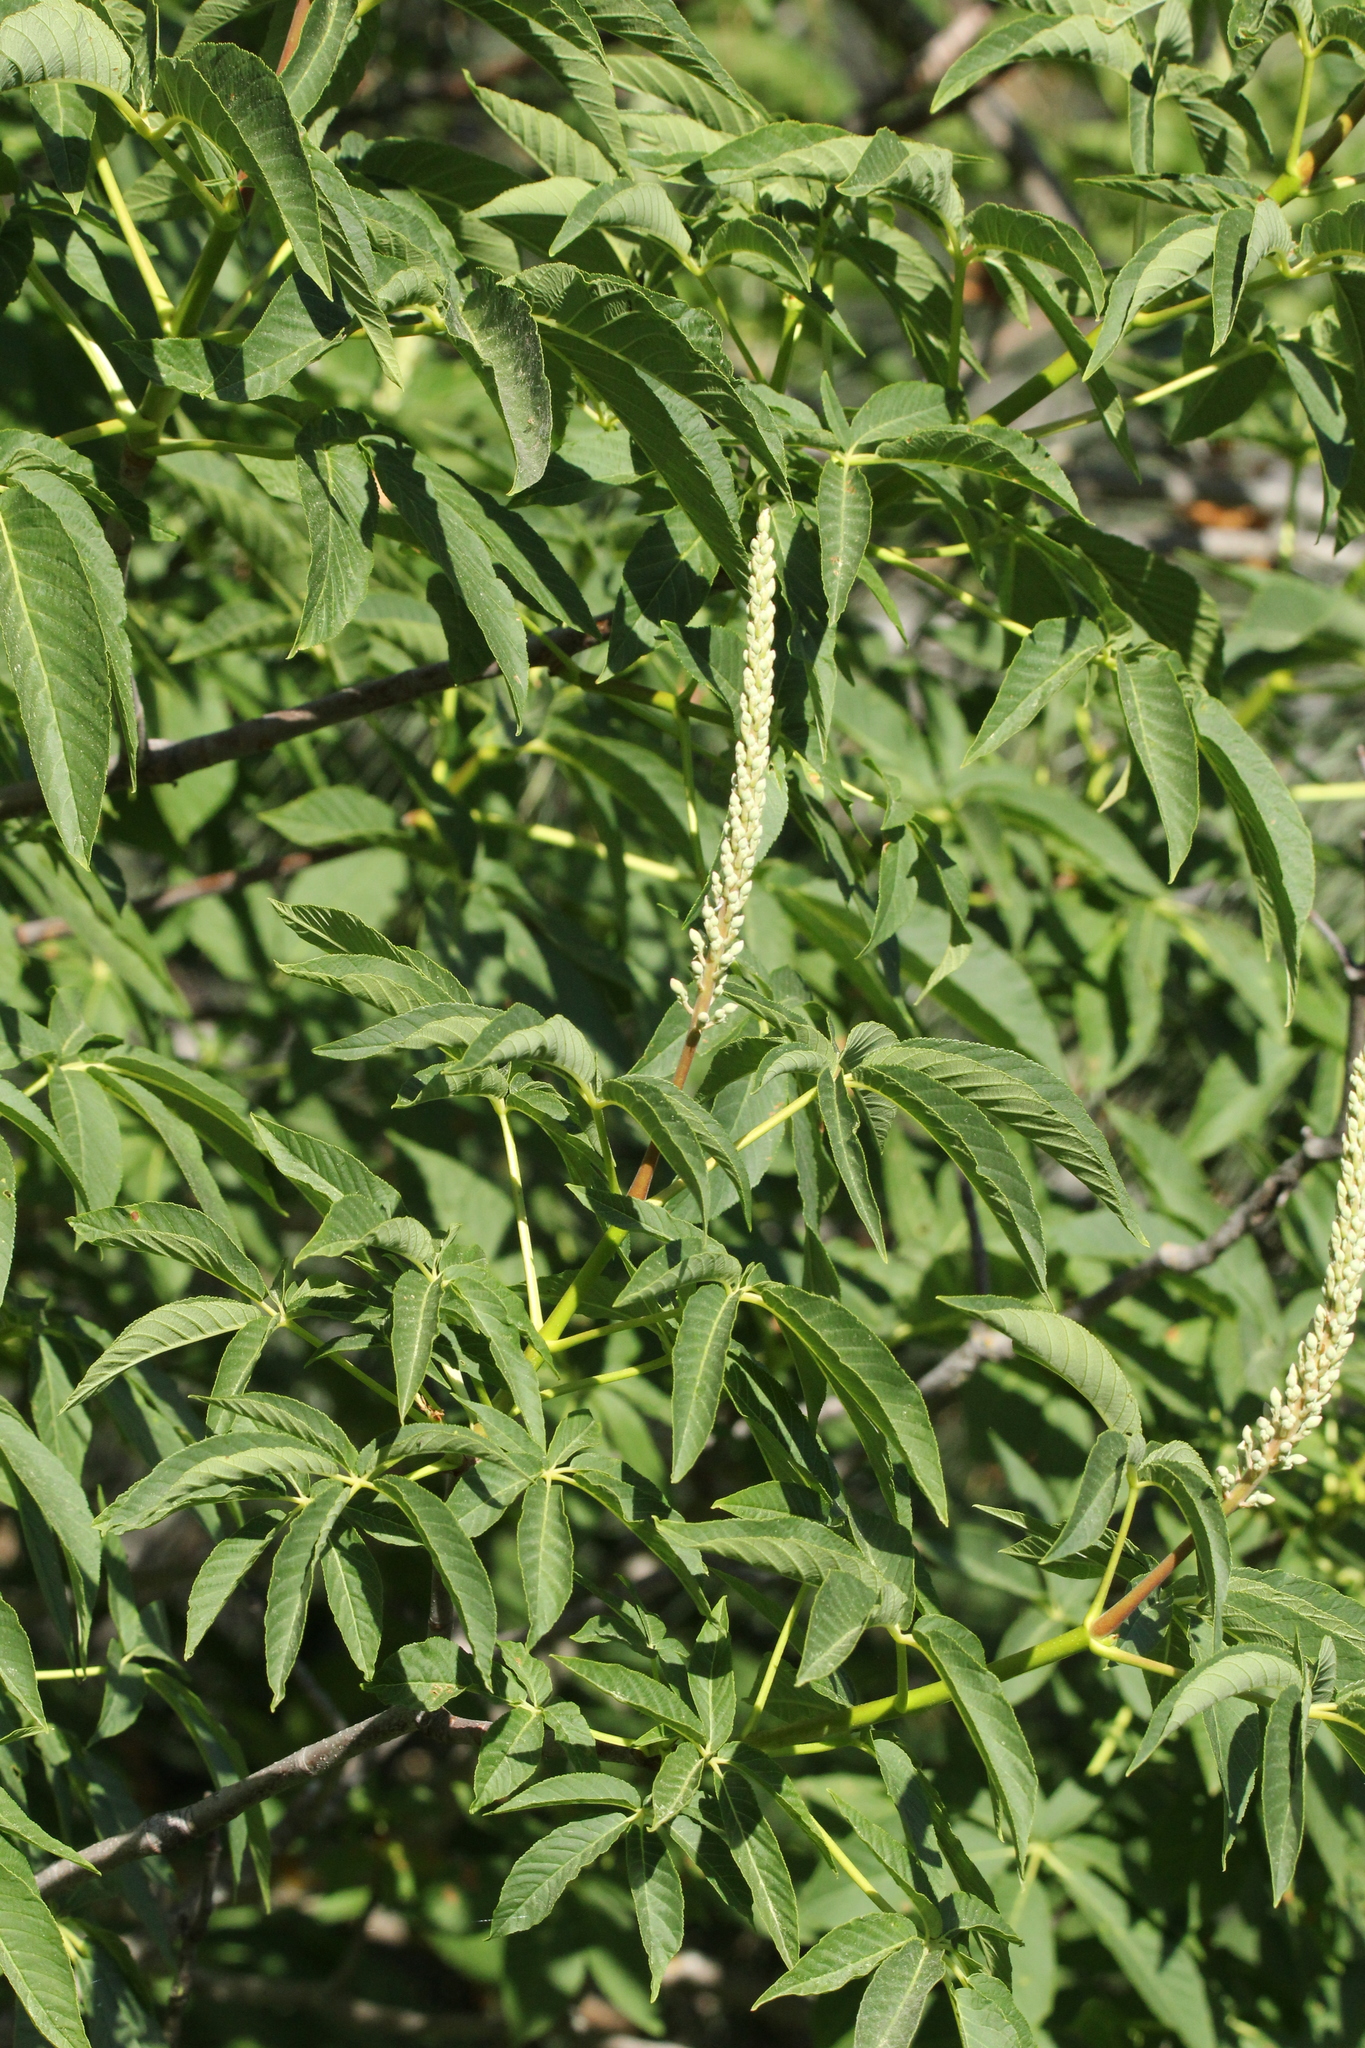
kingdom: Plantae
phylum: Tracheophyta
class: Magnoliopsida
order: Sapindales
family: Sapindaceae
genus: Aesculus
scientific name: Aesculus californica
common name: California buckeye
